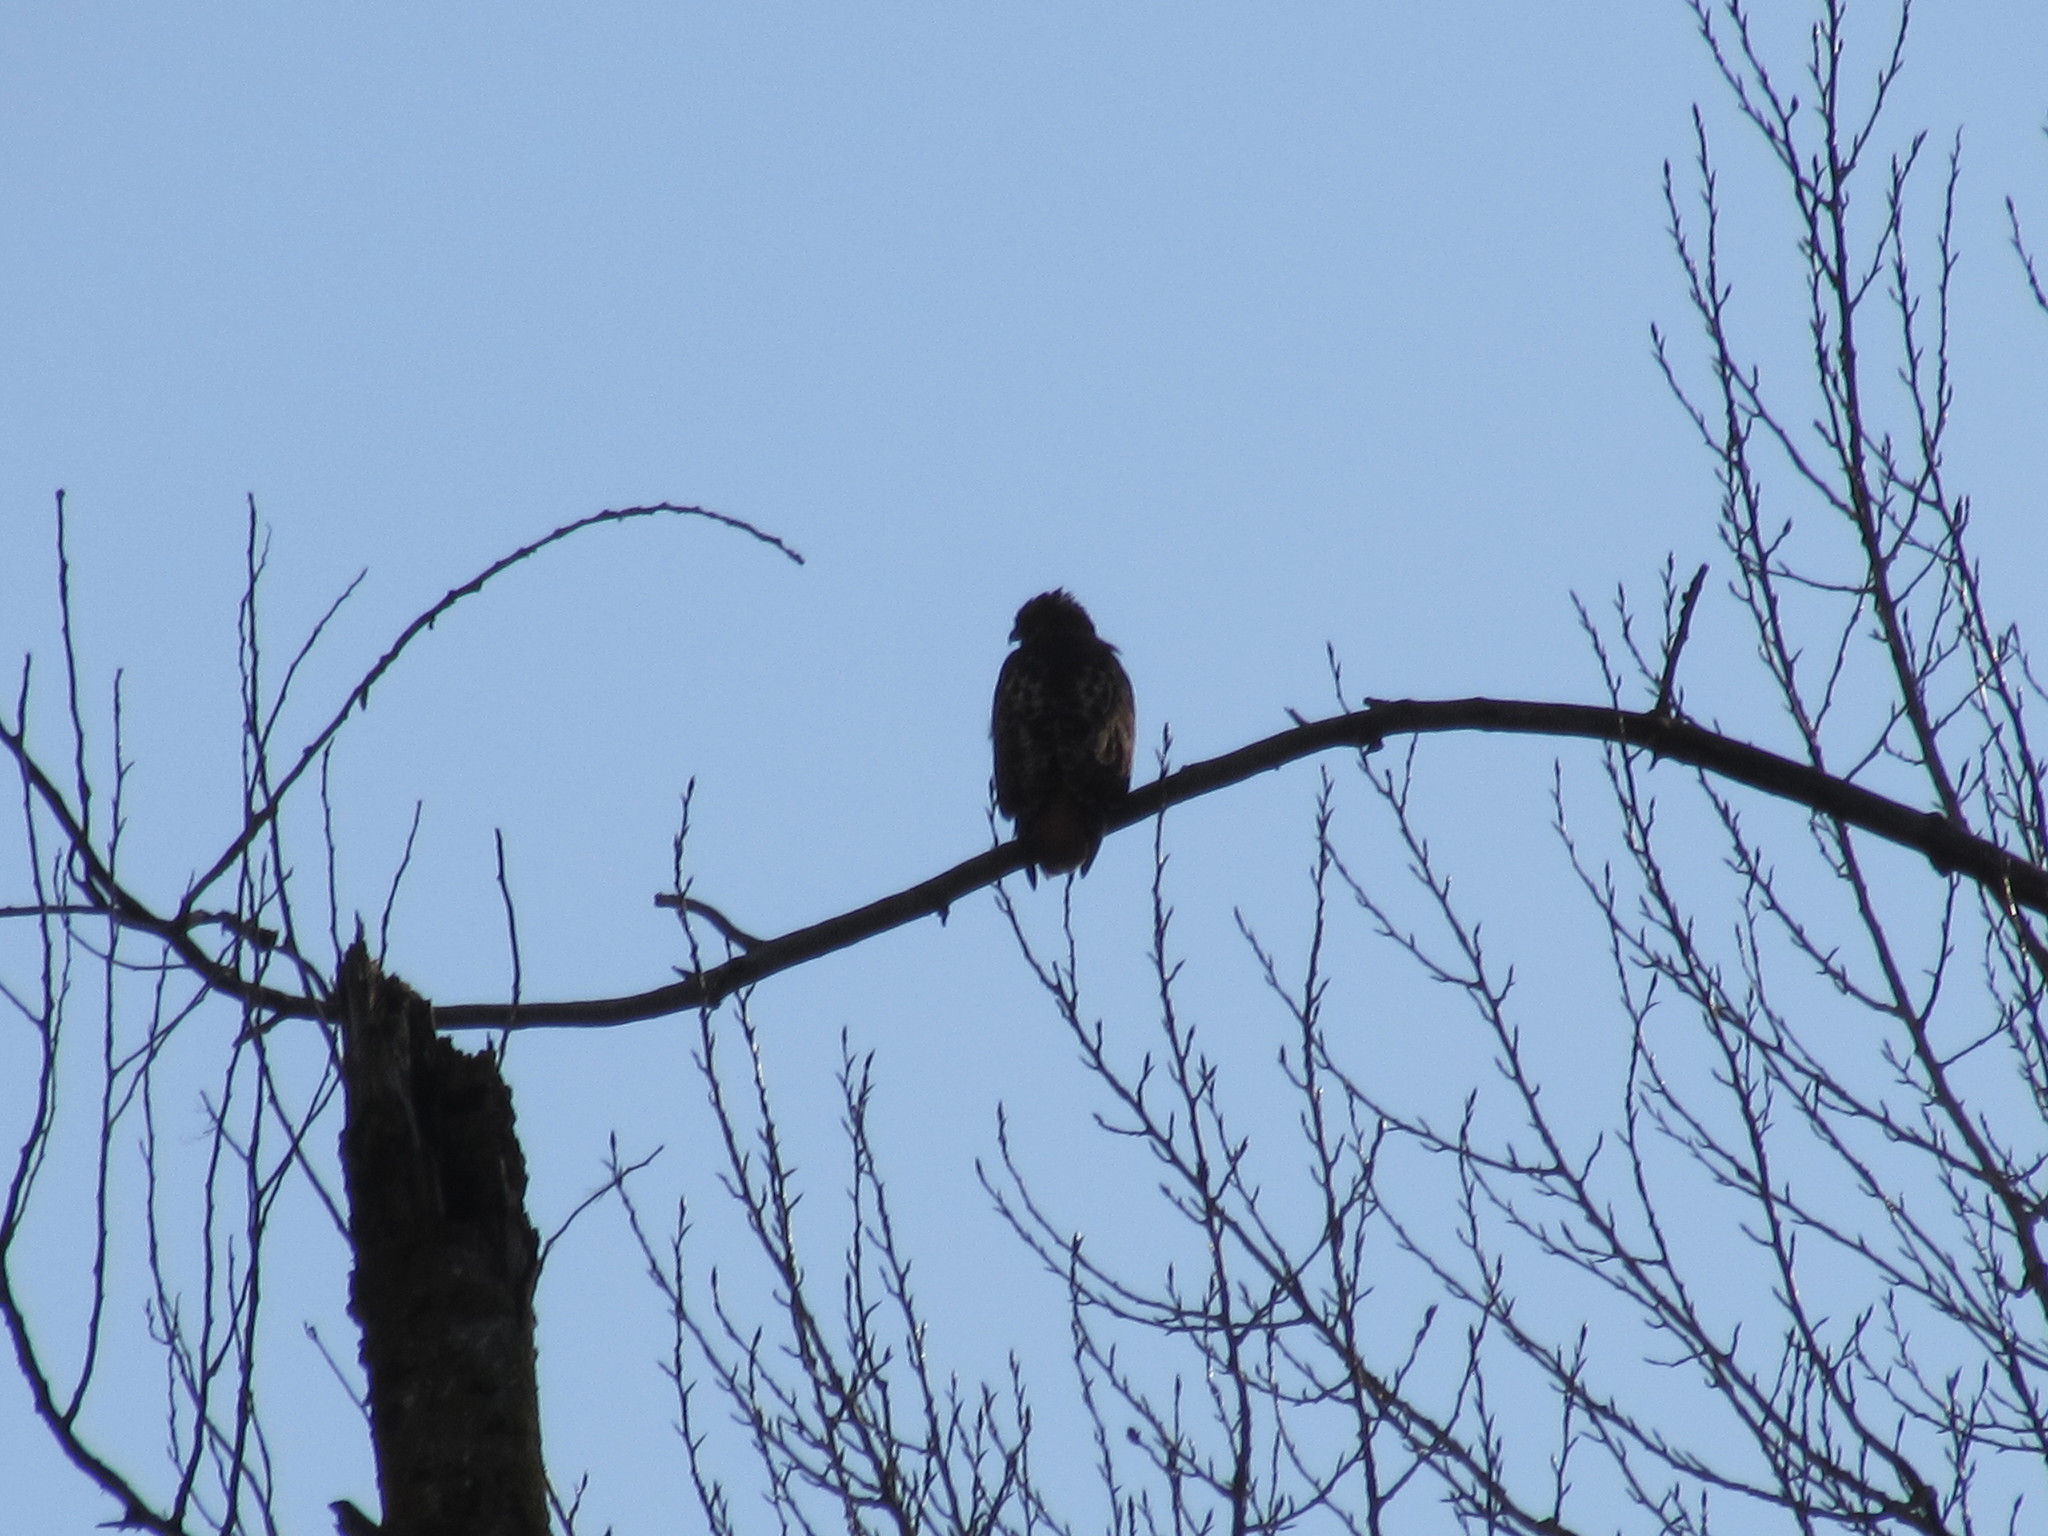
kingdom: Animalia
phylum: Chordata
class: Aves
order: Accipitriformes
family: Accipitridae
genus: Buteo
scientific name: Buteo jamaicensis
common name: Red-tailed hawk
